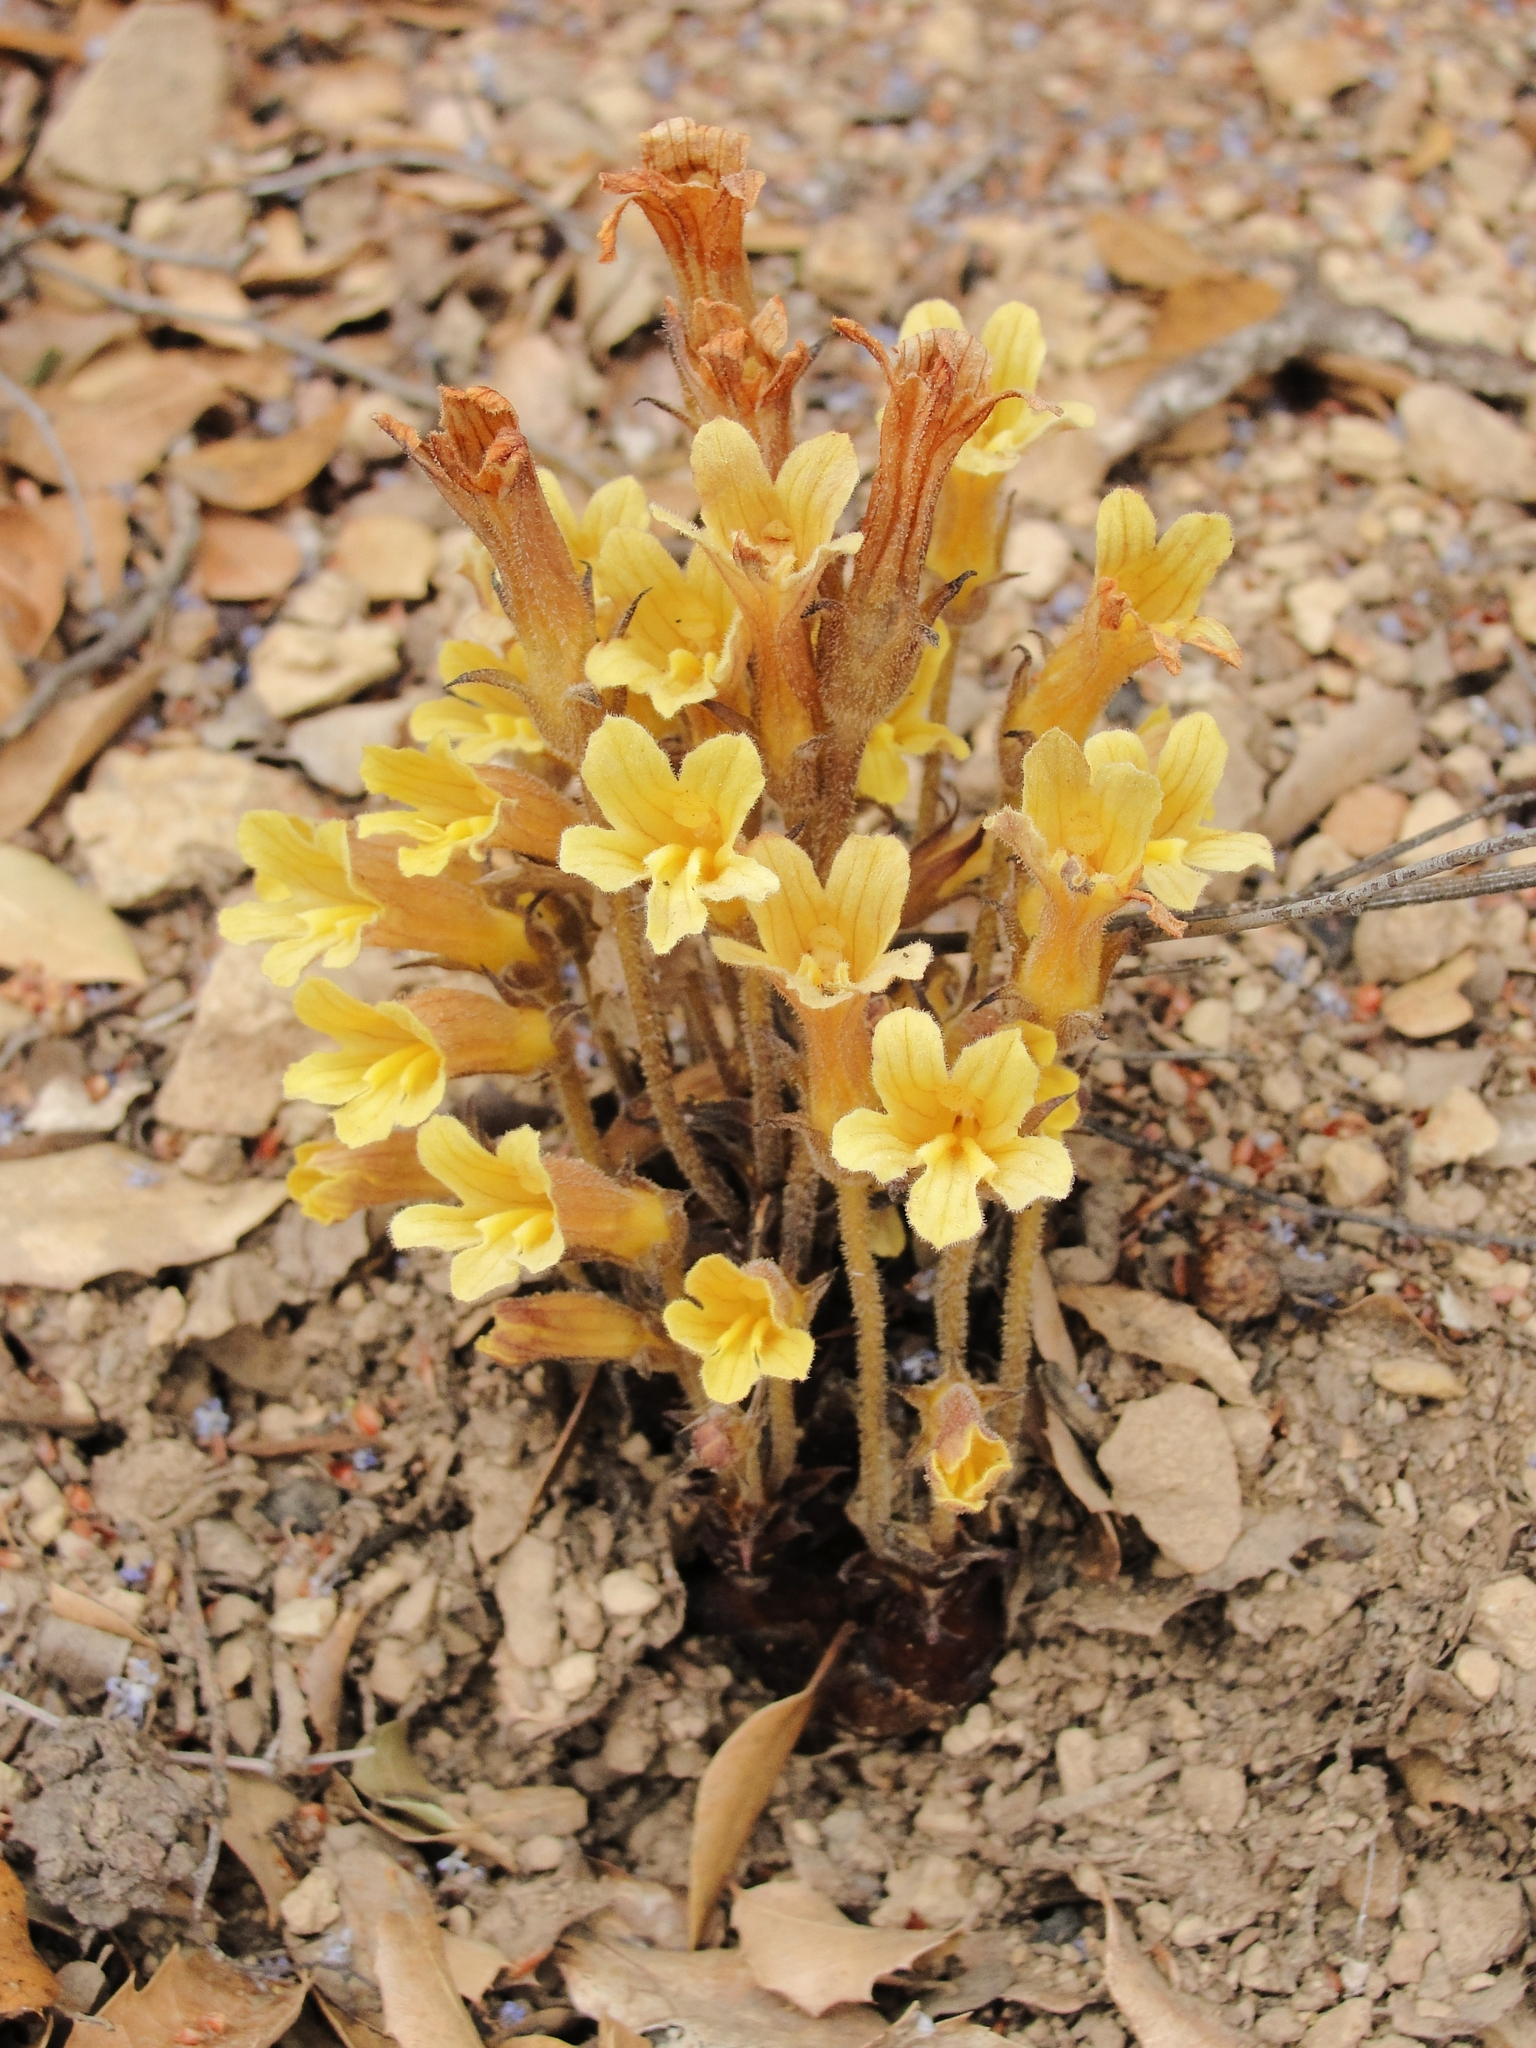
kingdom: Plantae
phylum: Tracheophyta
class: Magnoliopsida
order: Lamiales
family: Orobanchaceae
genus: Aphyllon
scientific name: Aphyllon franciscanum
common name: San francisco broomrape
